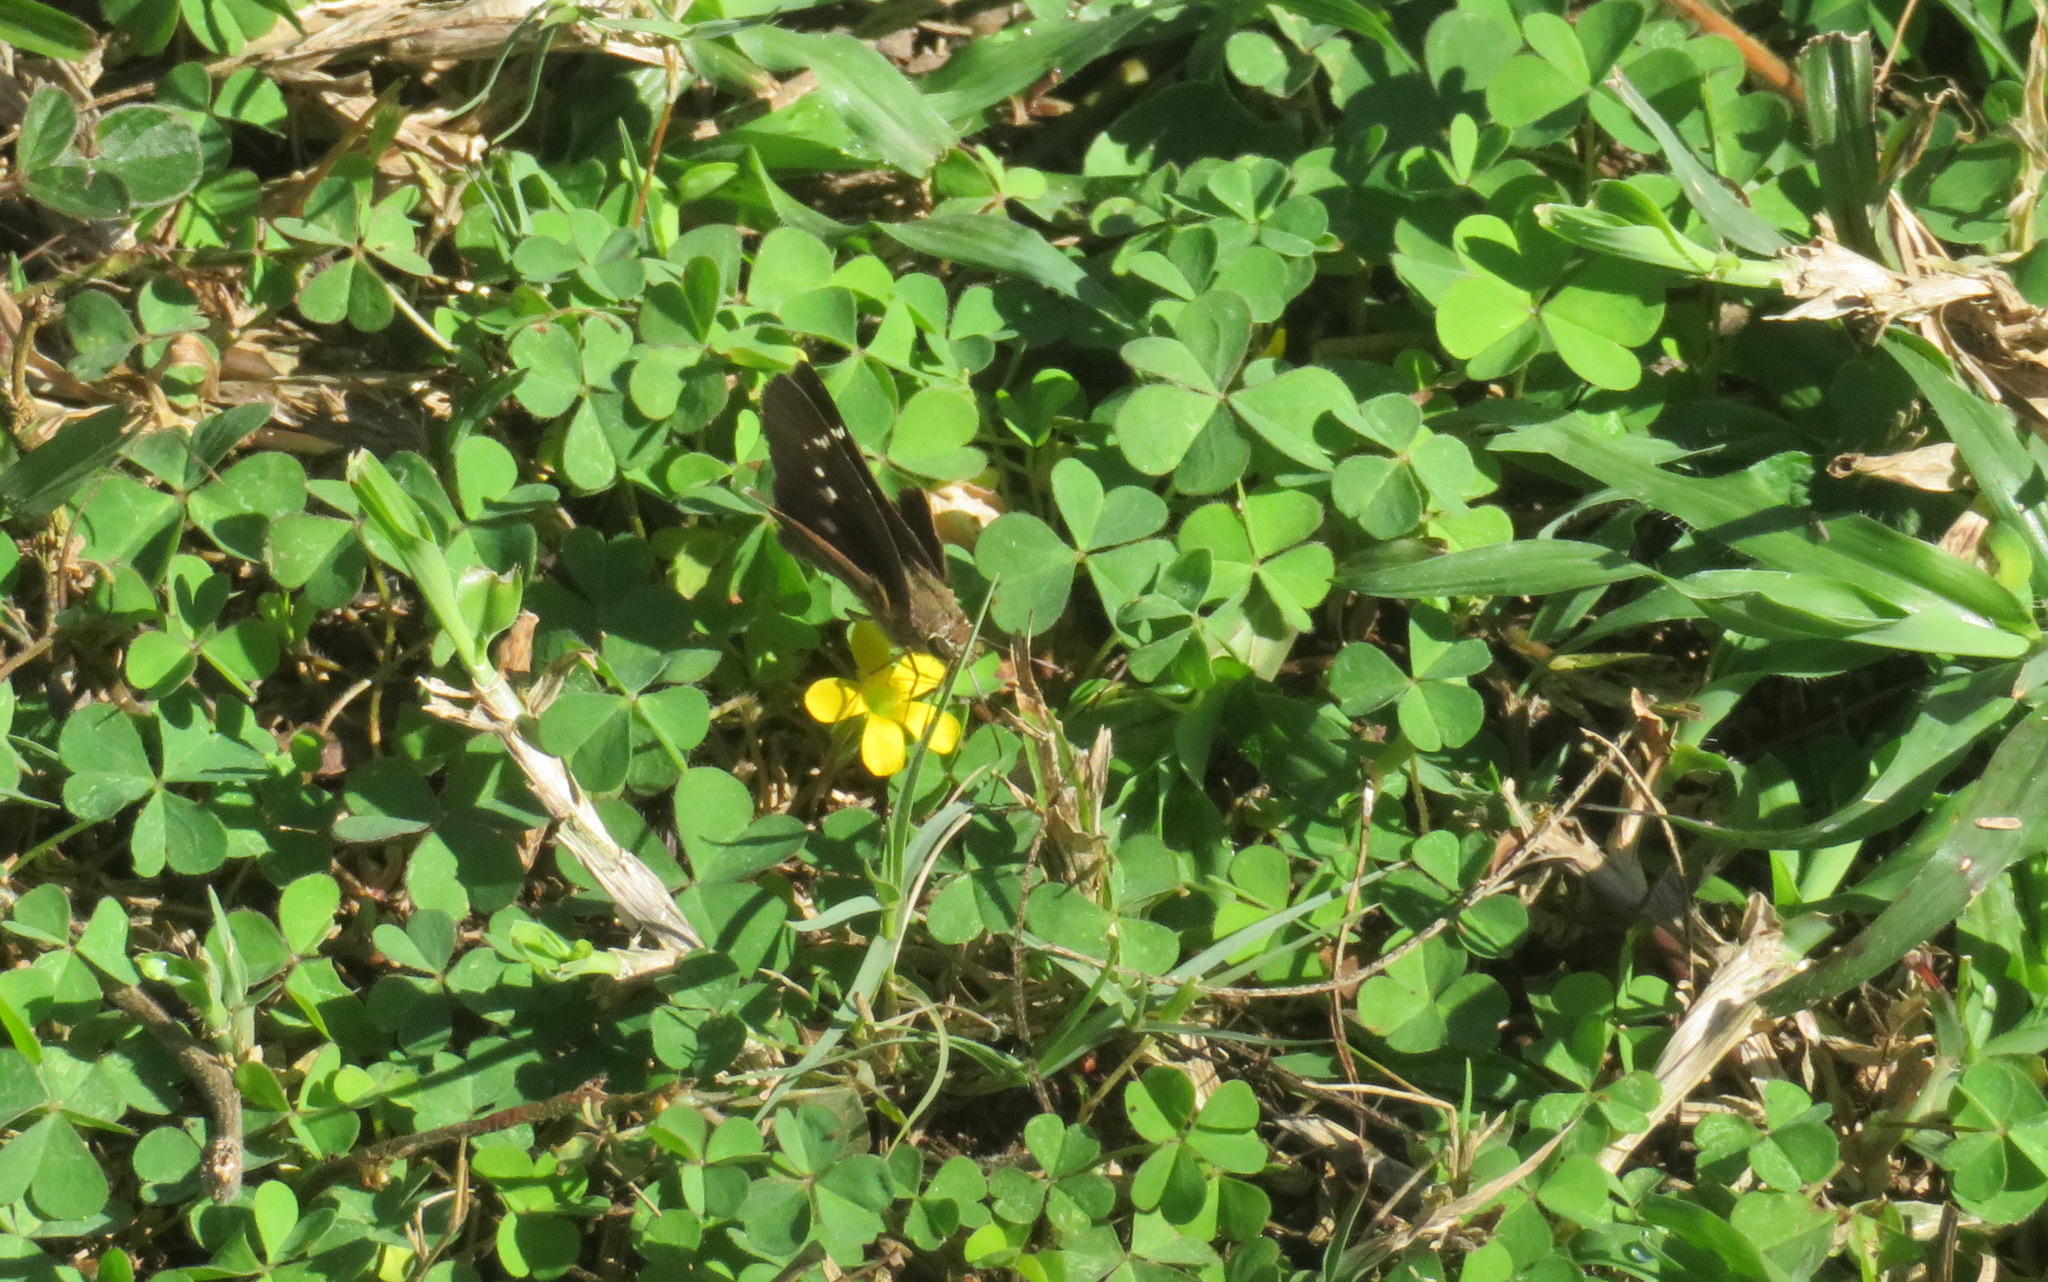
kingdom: Plantae
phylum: Tracheophyta
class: Magnoliopsida
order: Oxalidales
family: Oxalidaceae
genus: Oxalis
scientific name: Oxalis corniculata
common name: Procumbent yellow-sorrel
